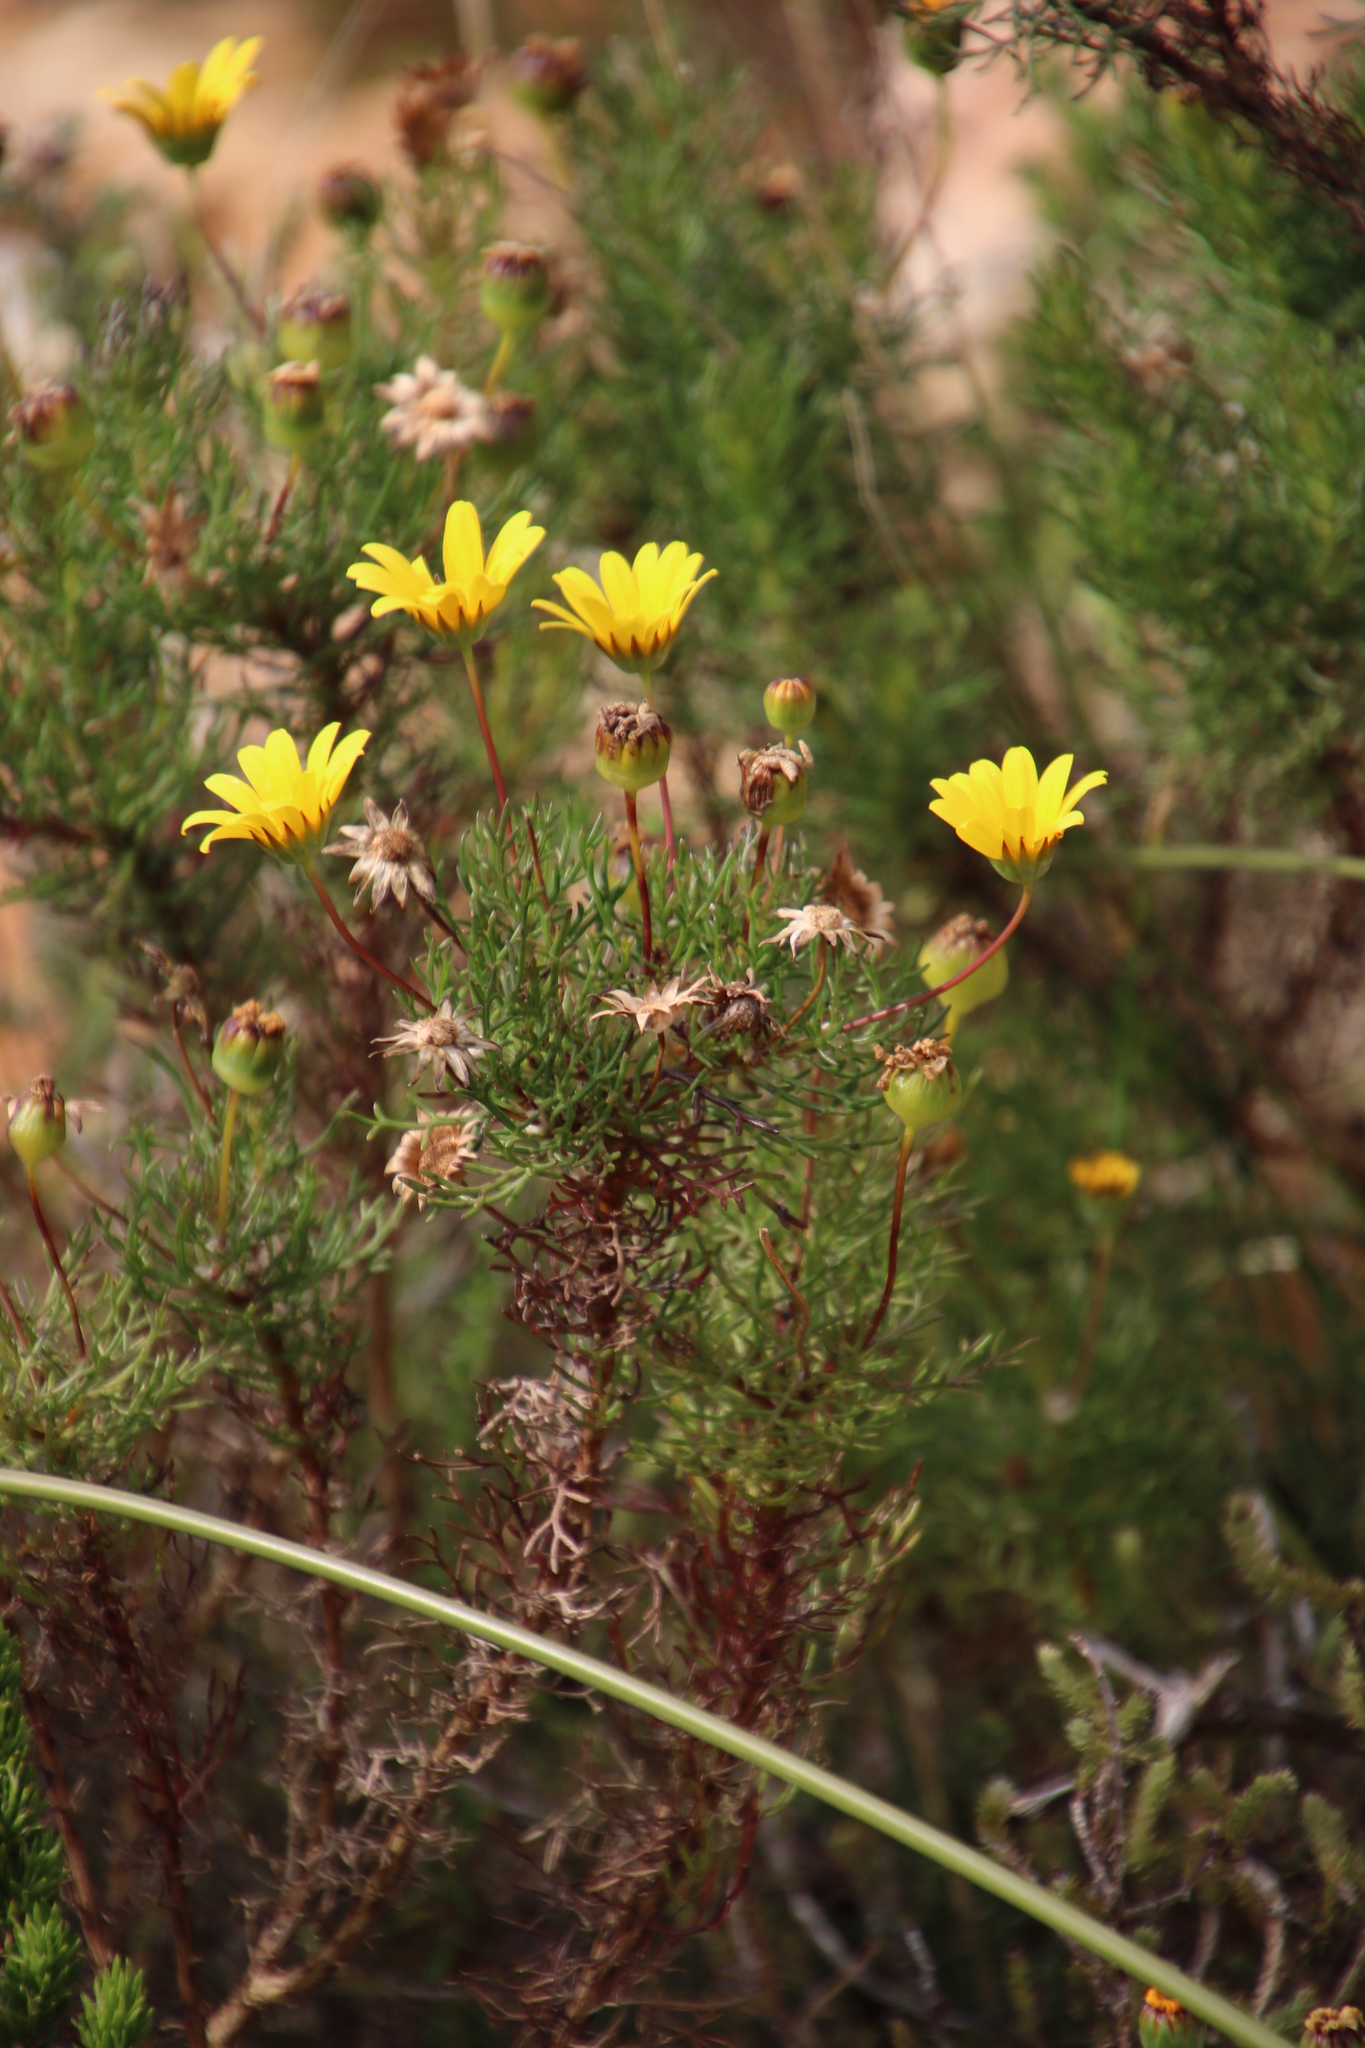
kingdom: Plantae
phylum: Tracheophyta
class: Magnoliopsida
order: Asterales
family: Asteraceae
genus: Euryops
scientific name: Euryops abrotanifolius
